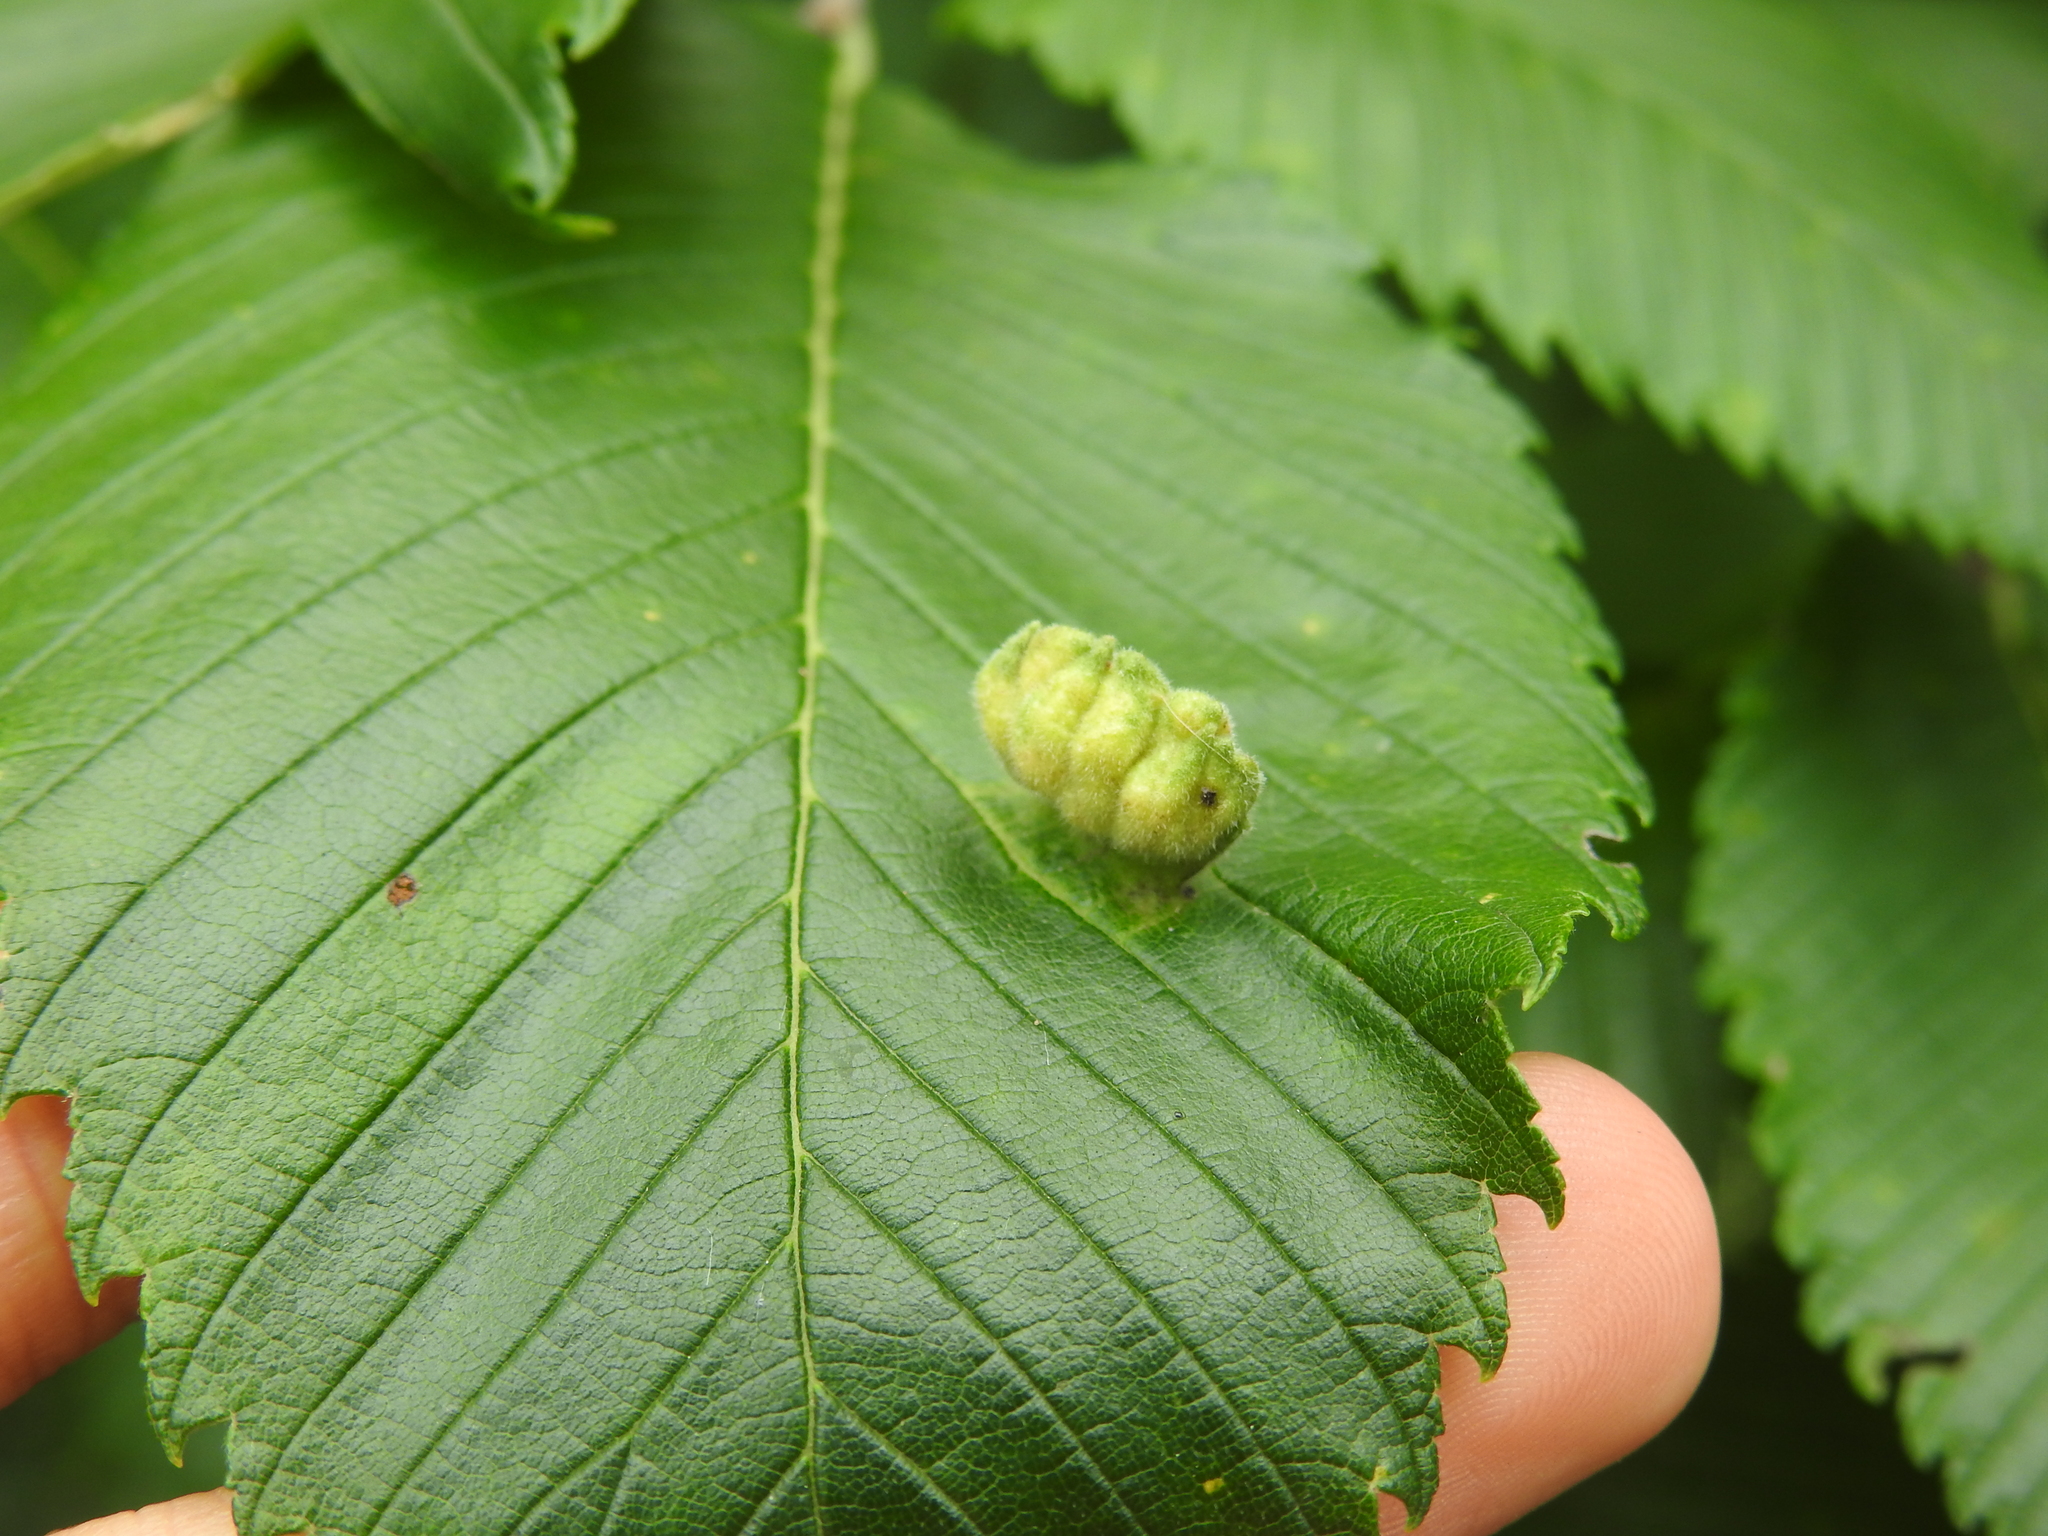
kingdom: Animalia
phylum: Arthropoda
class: Insecta
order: Hemiptera
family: Aphididae
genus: Colopha
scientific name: Colopha ulmicola
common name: Elm cockscombgall aphid
